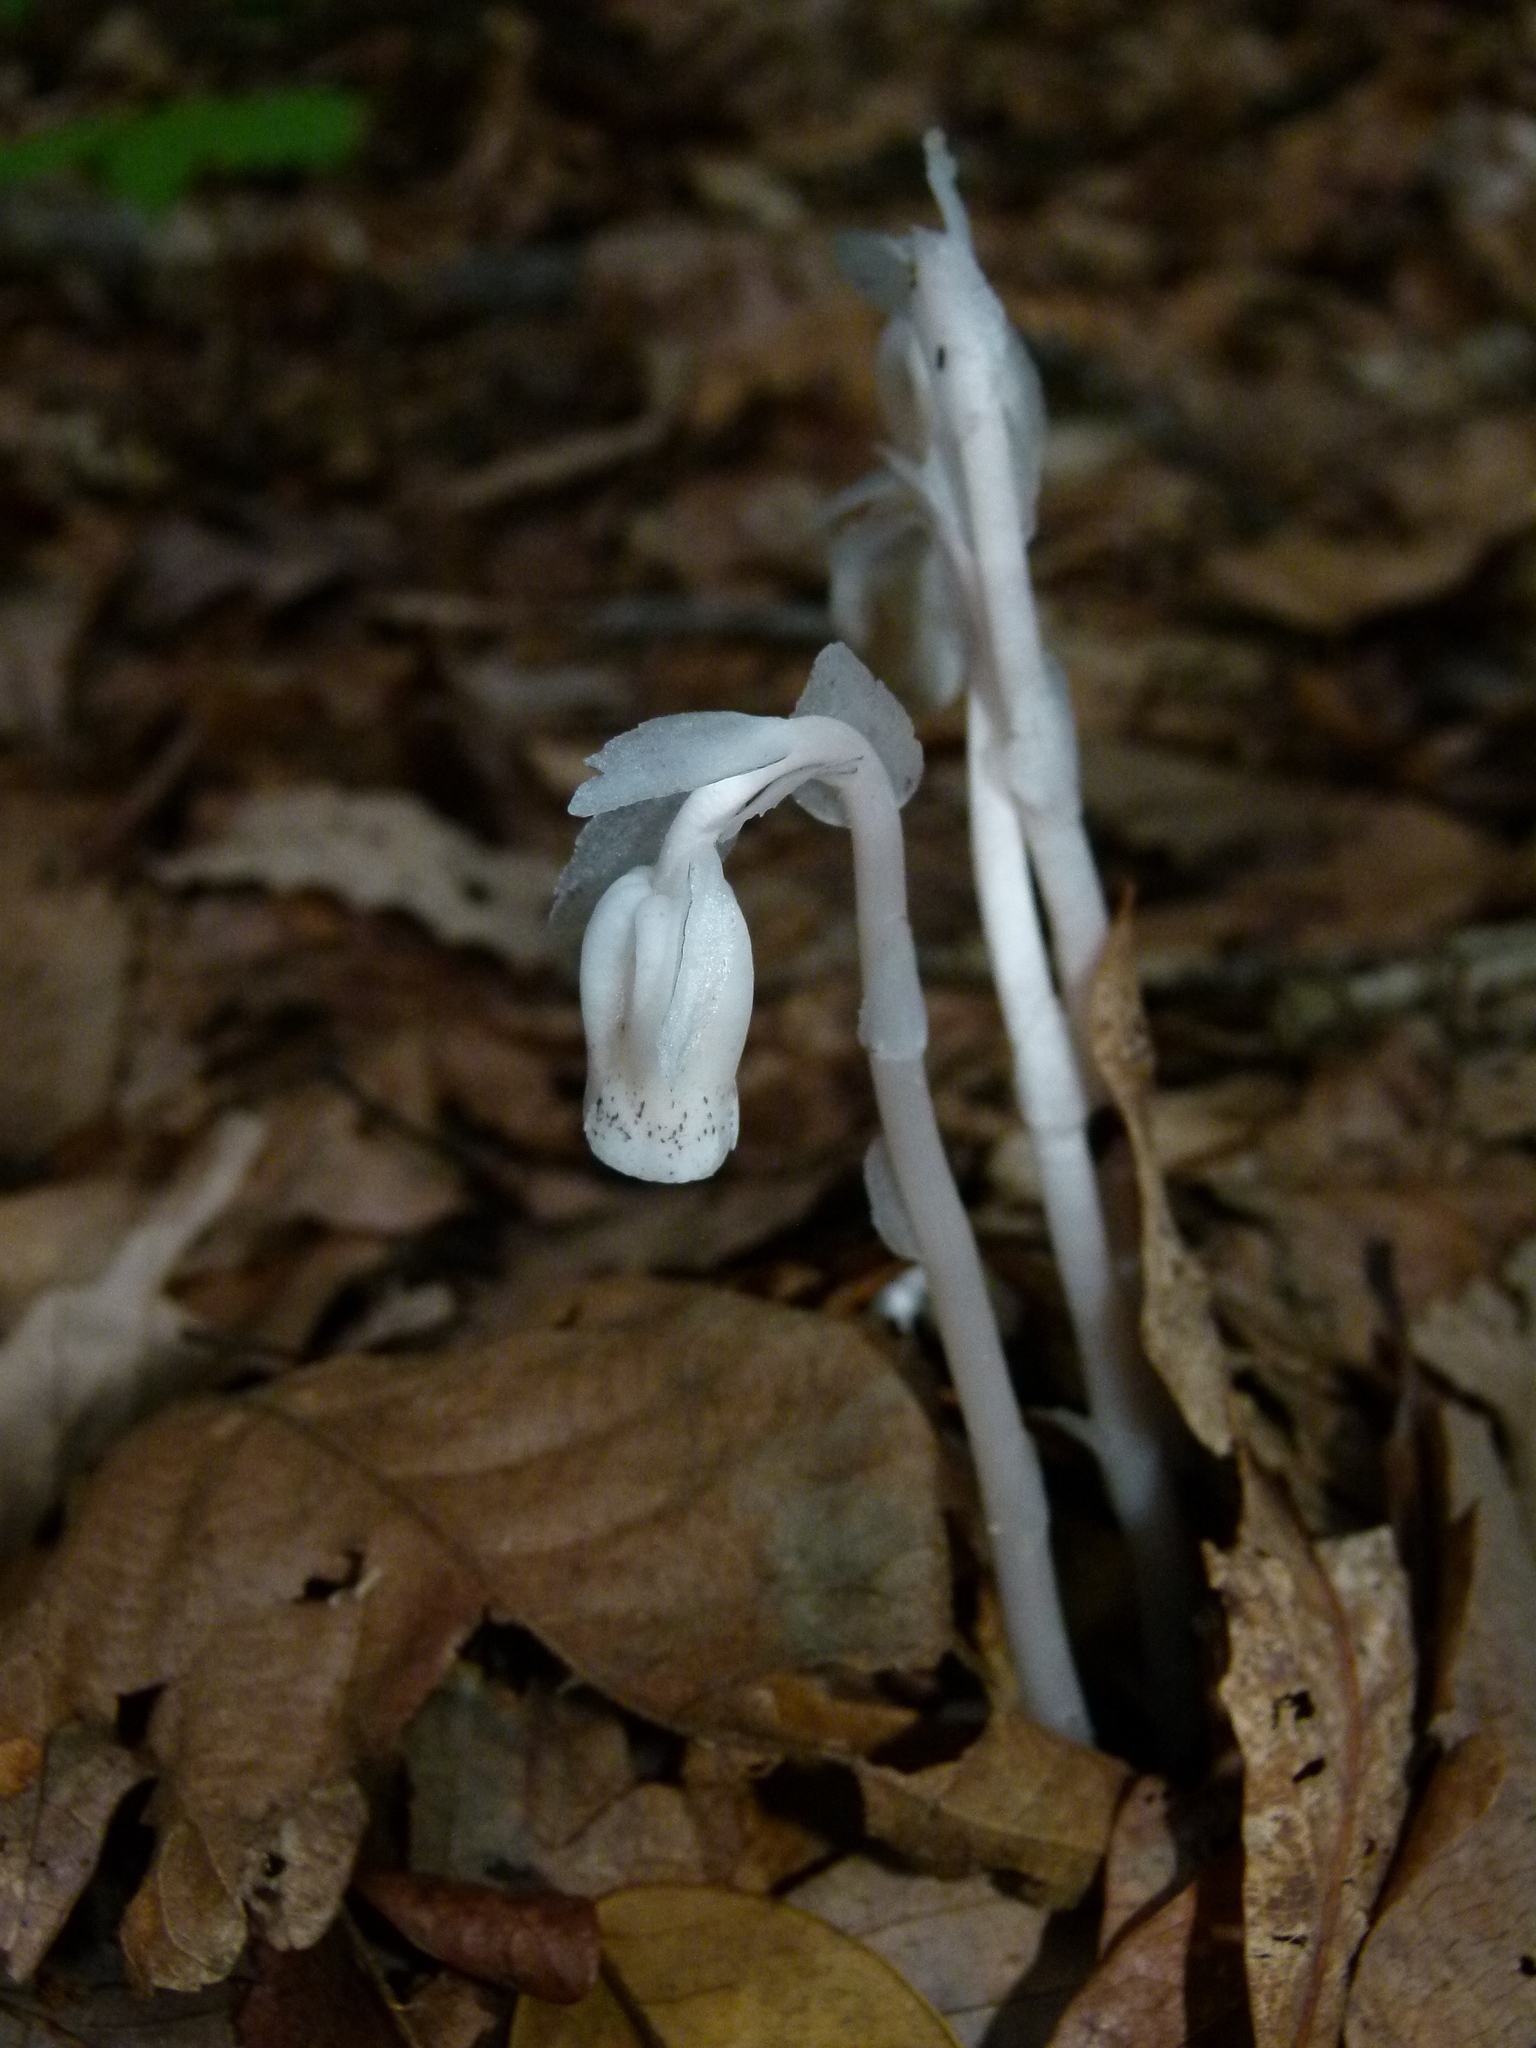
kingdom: Plantae
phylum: Tracheophyta
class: Magnoliopsida
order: Ericales
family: Ericaceae
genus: Monotropa
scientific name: Monotropa uniflora
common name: Convulsion root
